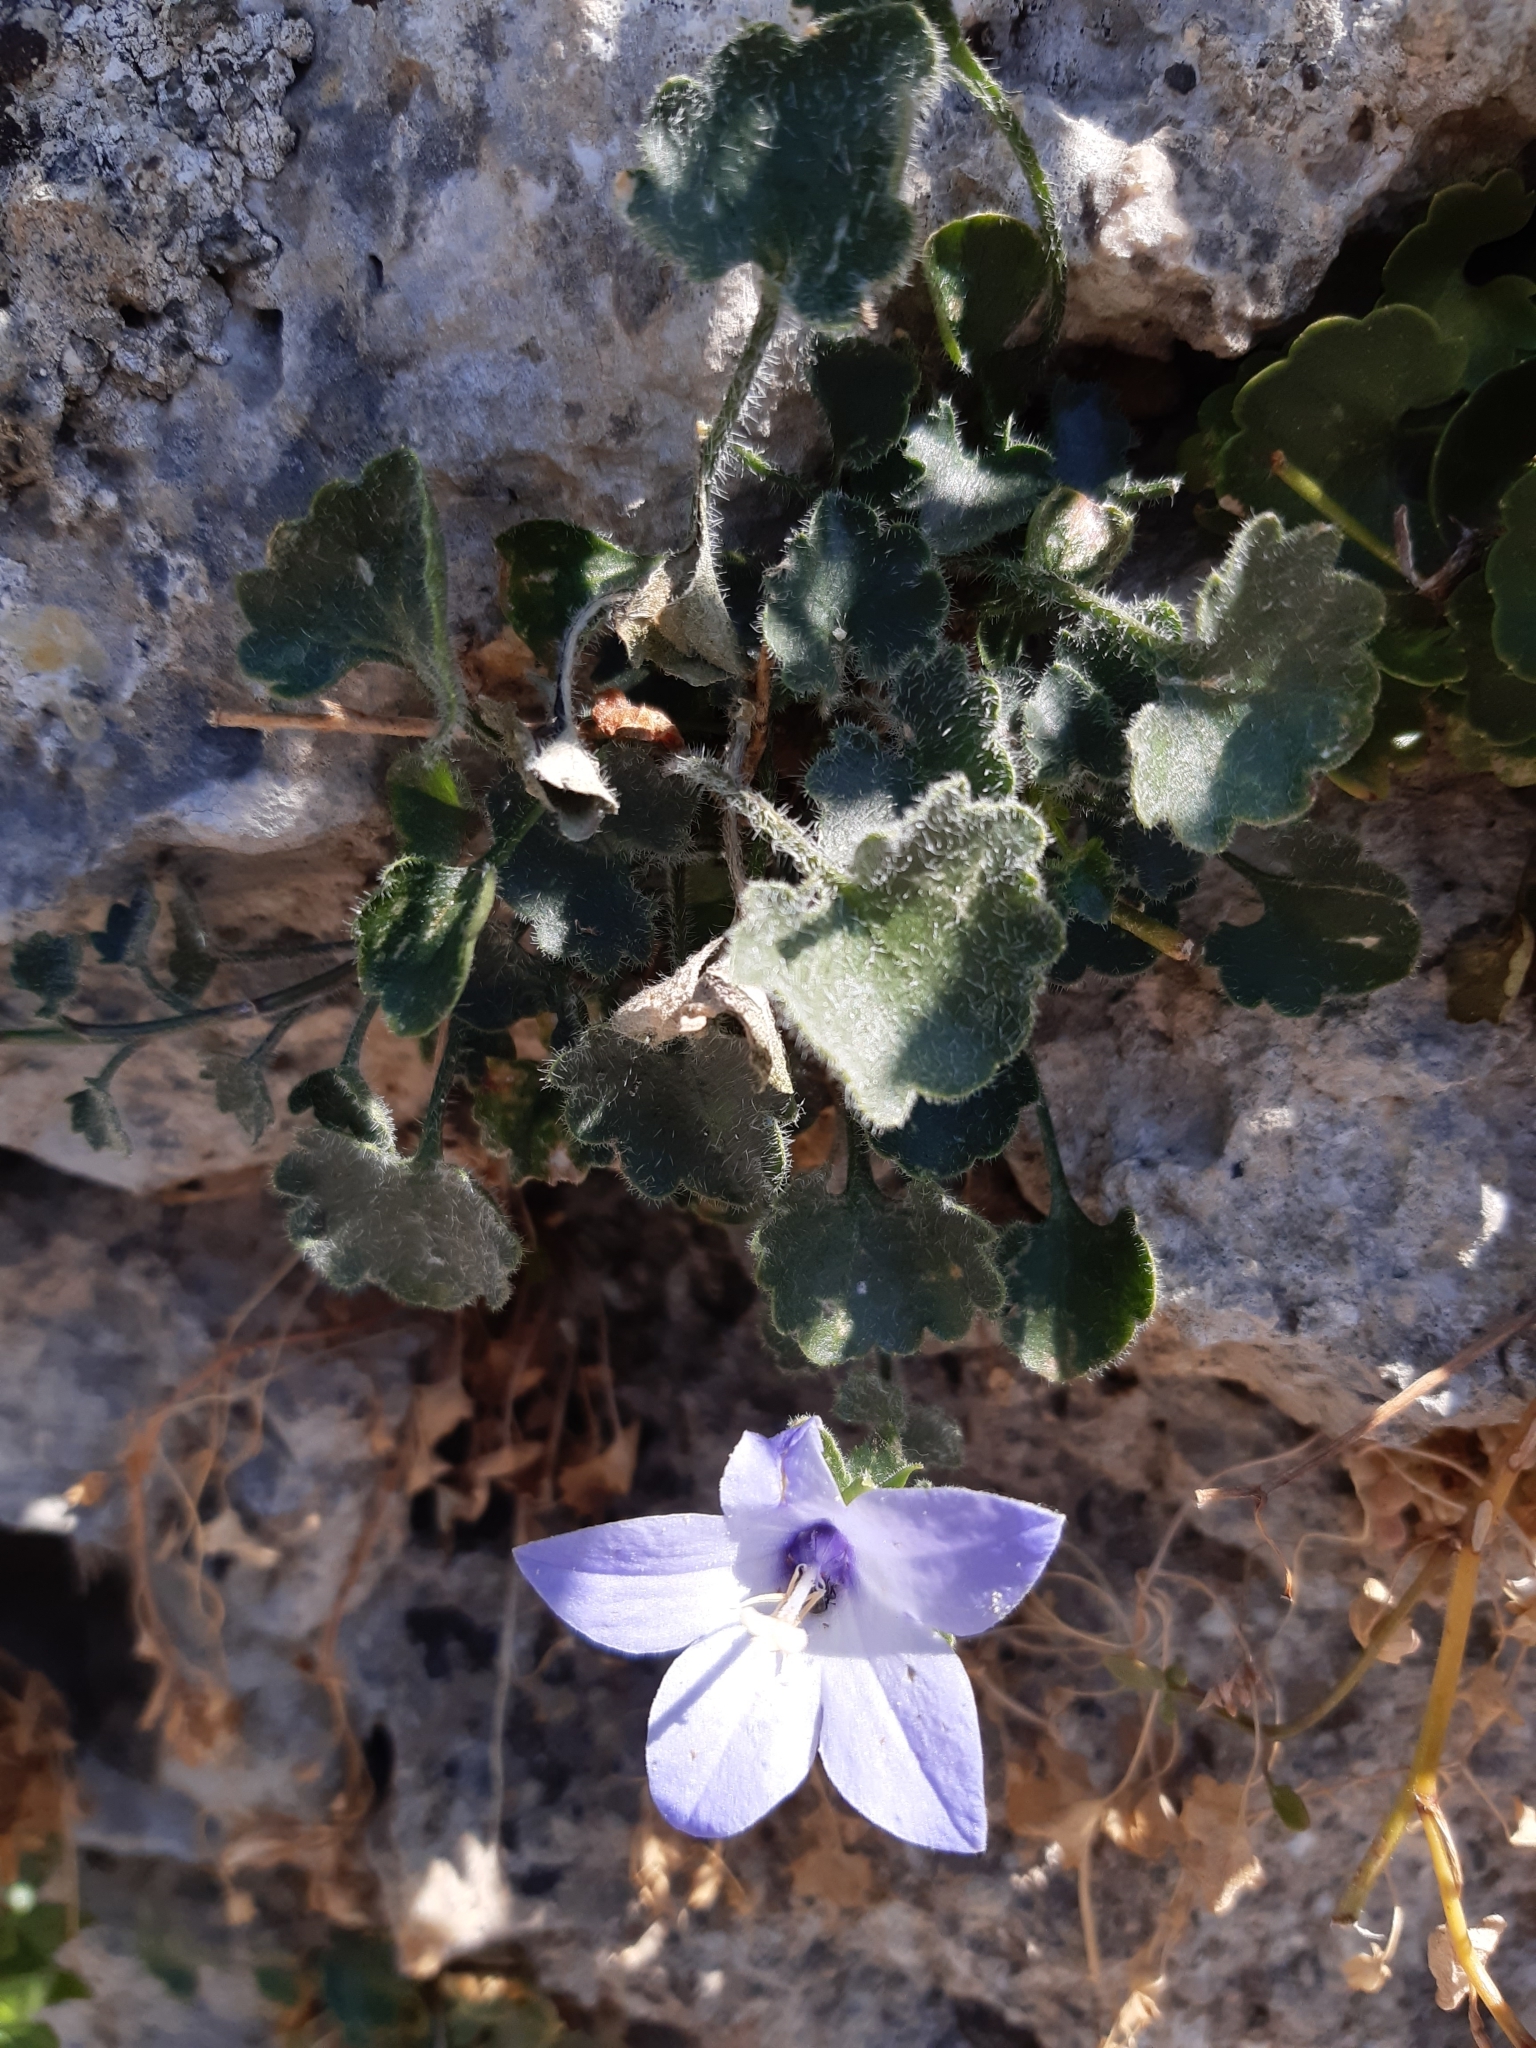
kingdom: Plantae
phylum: Tracheophyta
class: Magnoliopsida
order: Asterales
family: Campanulaceae
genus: Campanula
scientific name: Campanula fragilis
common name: Italian bellflower
